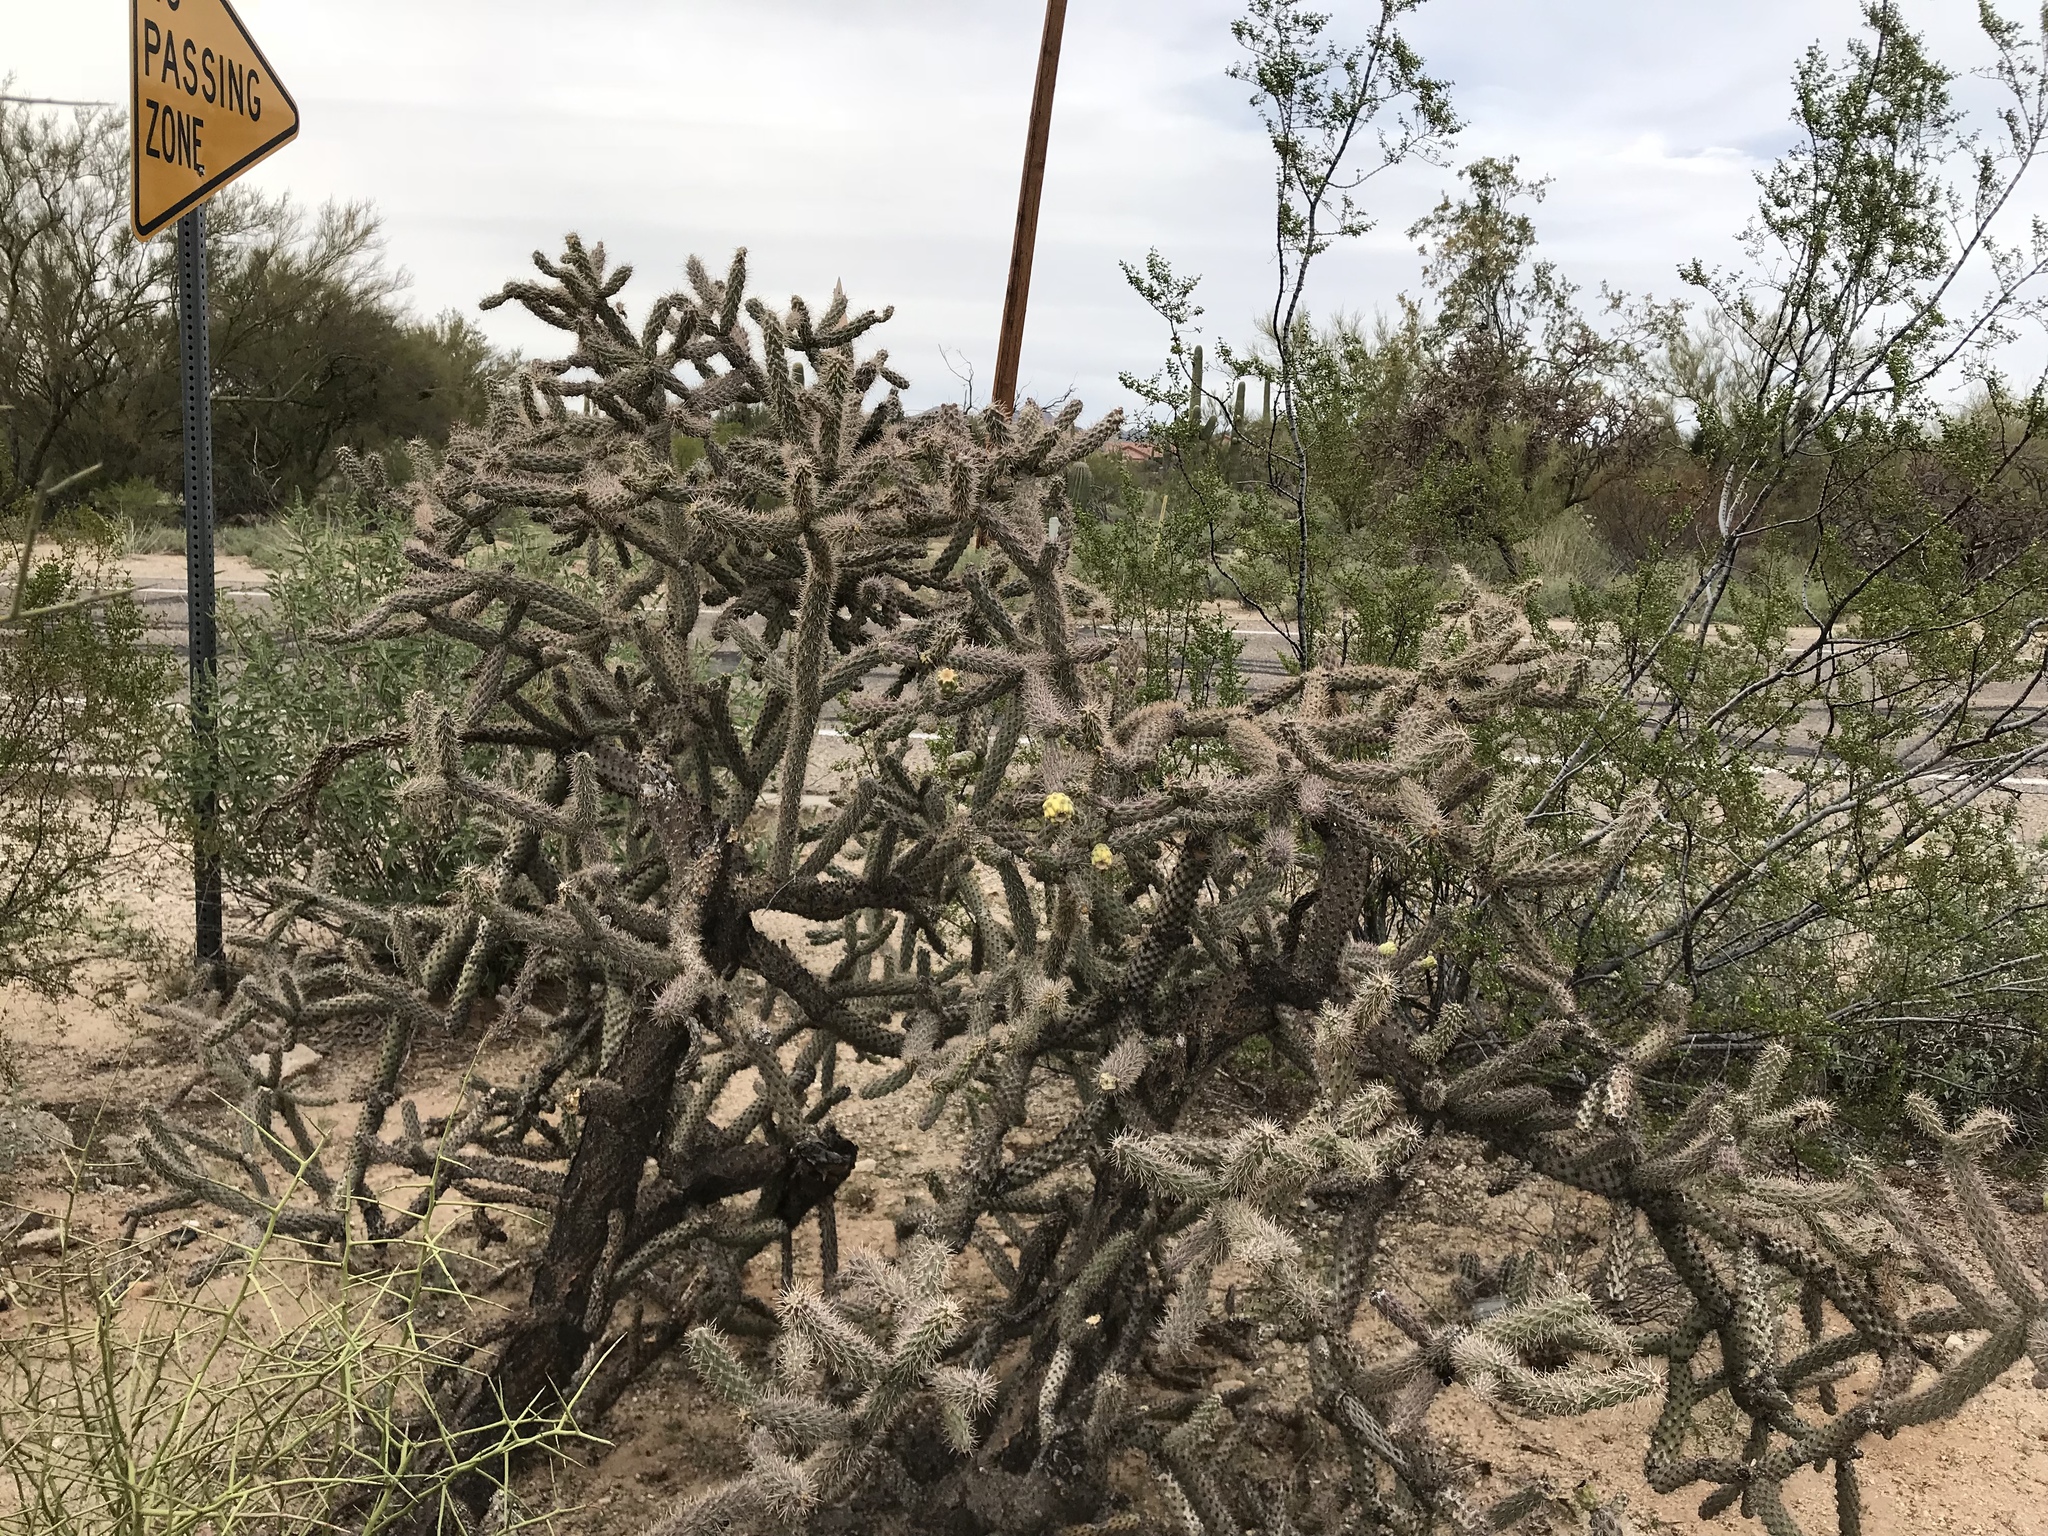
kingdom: Plantae
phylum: Tracheophyta
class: Magnoliopsida
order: Caryophyllales
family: Cactaceae
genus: Cylindropuntia
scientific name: Cylindropuntia imbricata
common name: Candelabrum cactus
